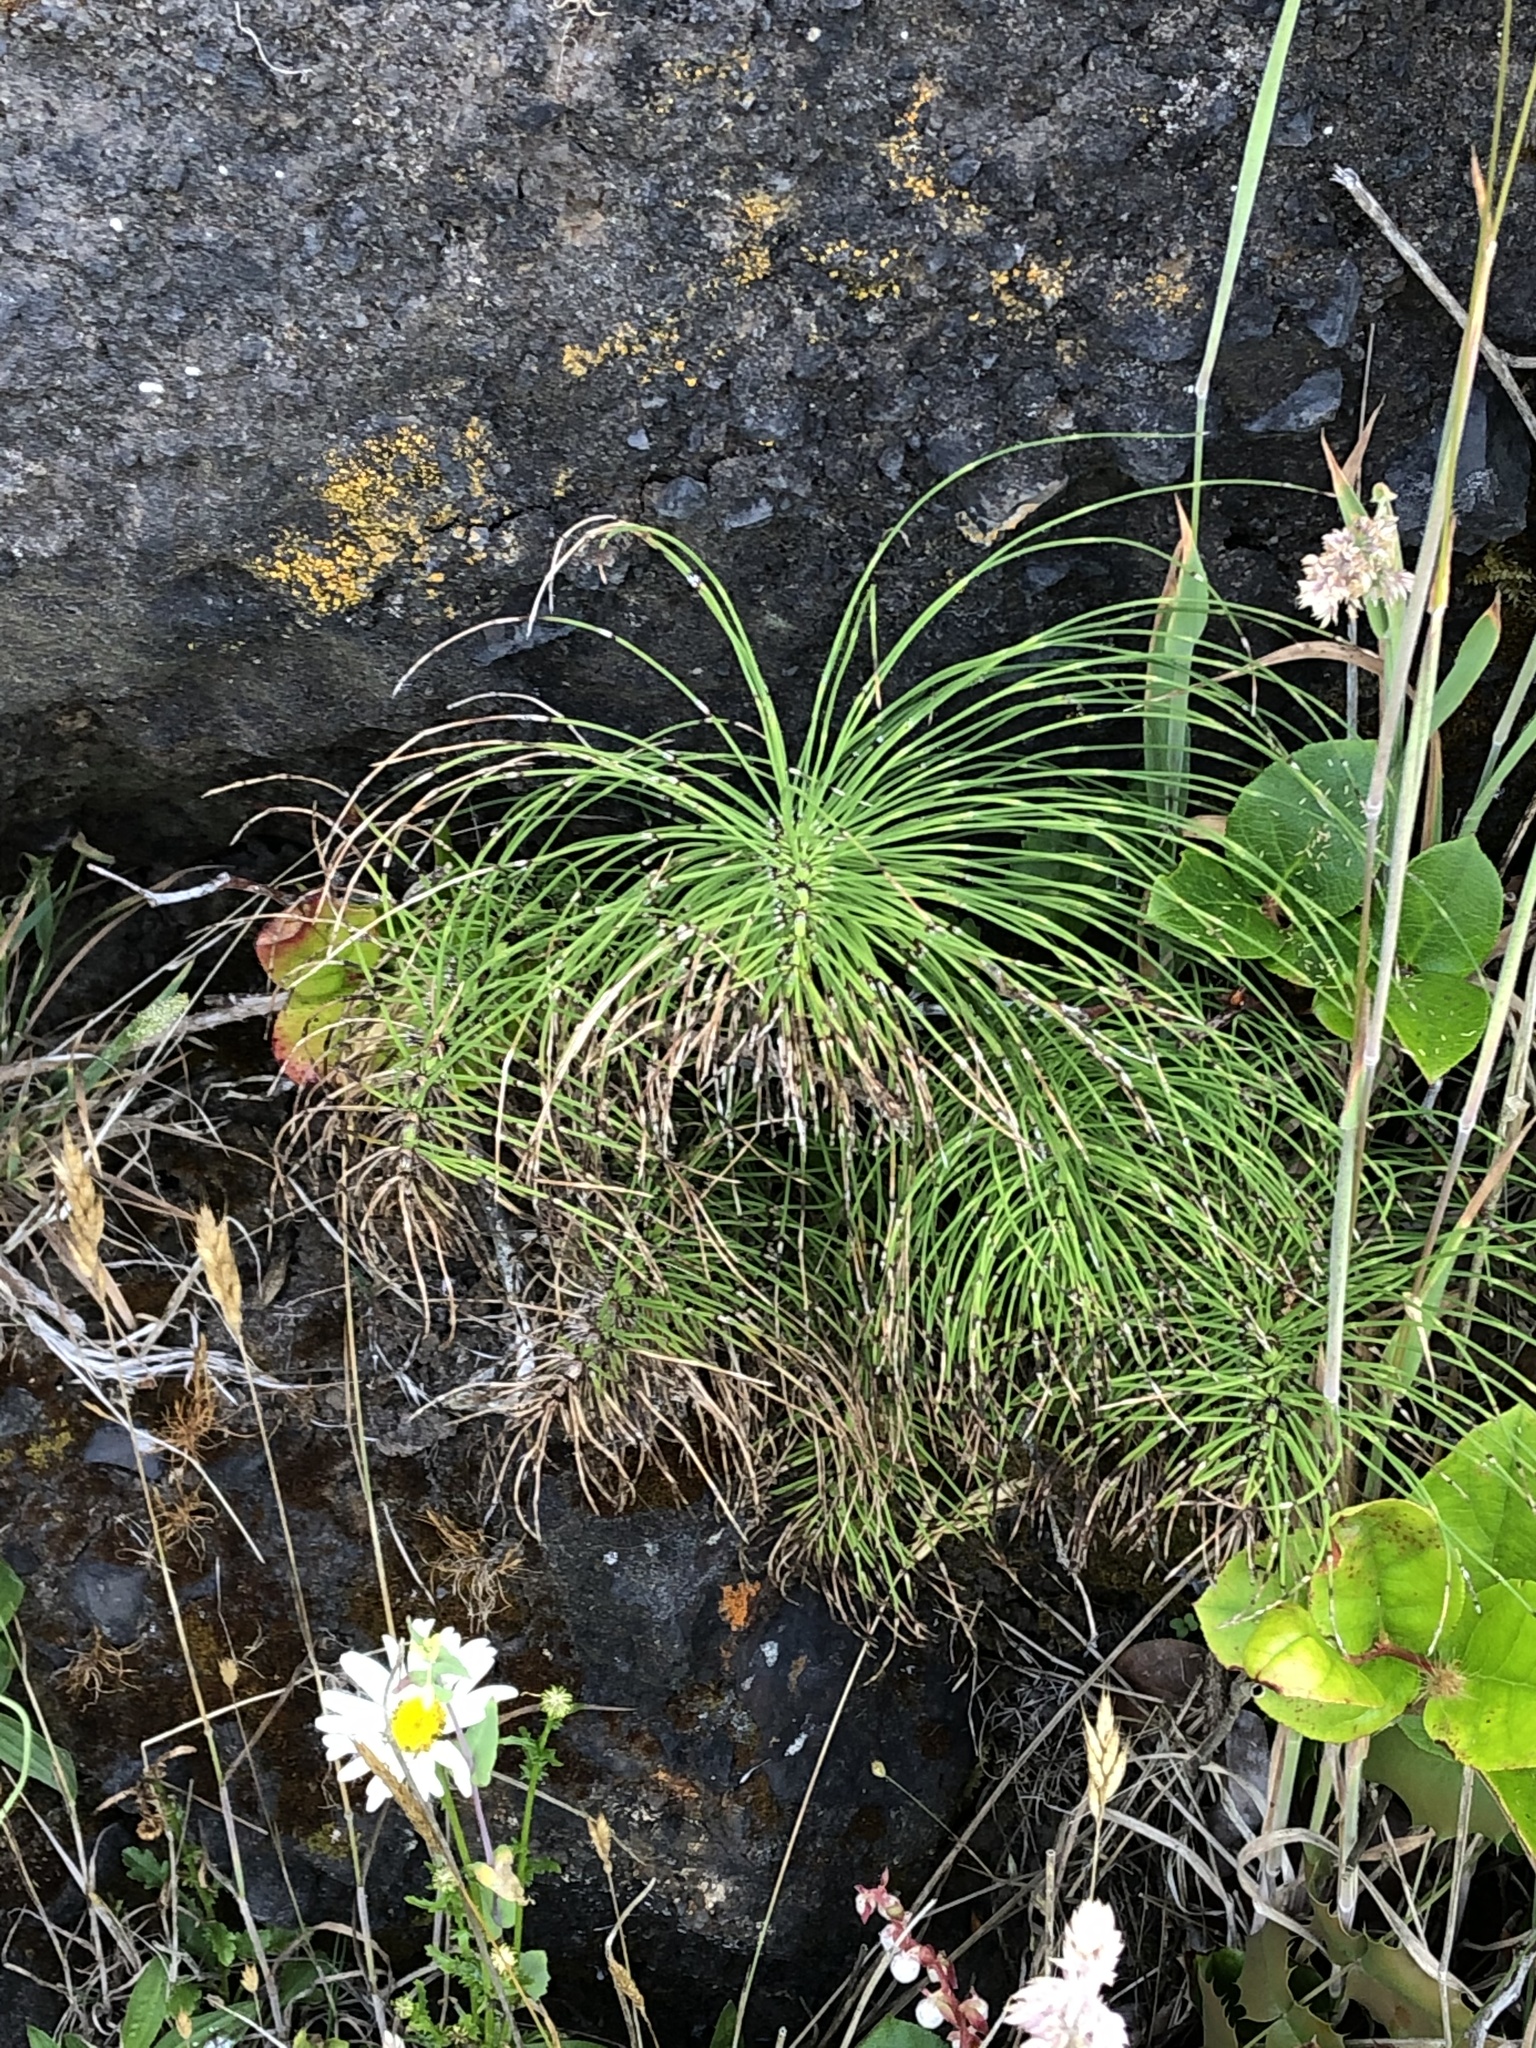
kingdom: Plantae
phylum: Tracheophyta
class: Polypodiopsida
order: Equisetales
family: Equisetaceae
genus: Equisetum
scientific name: Equisetum braunii
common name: Braun's horsetail
